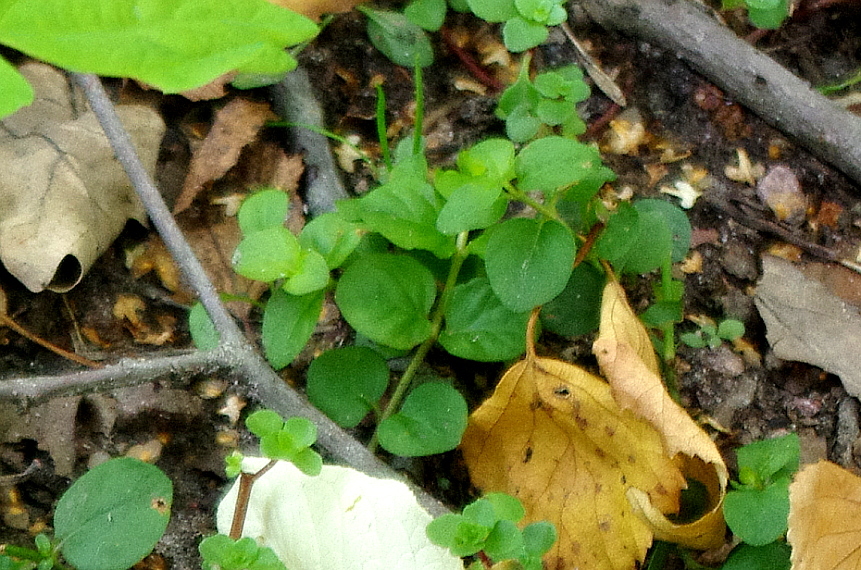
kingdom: Plantae
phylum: Tracheophyta
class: Magnoliopsida
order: Ericales
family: Primulaceae
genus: Lysimachia
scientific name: Lysimachia nummularia
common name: Moneywort
